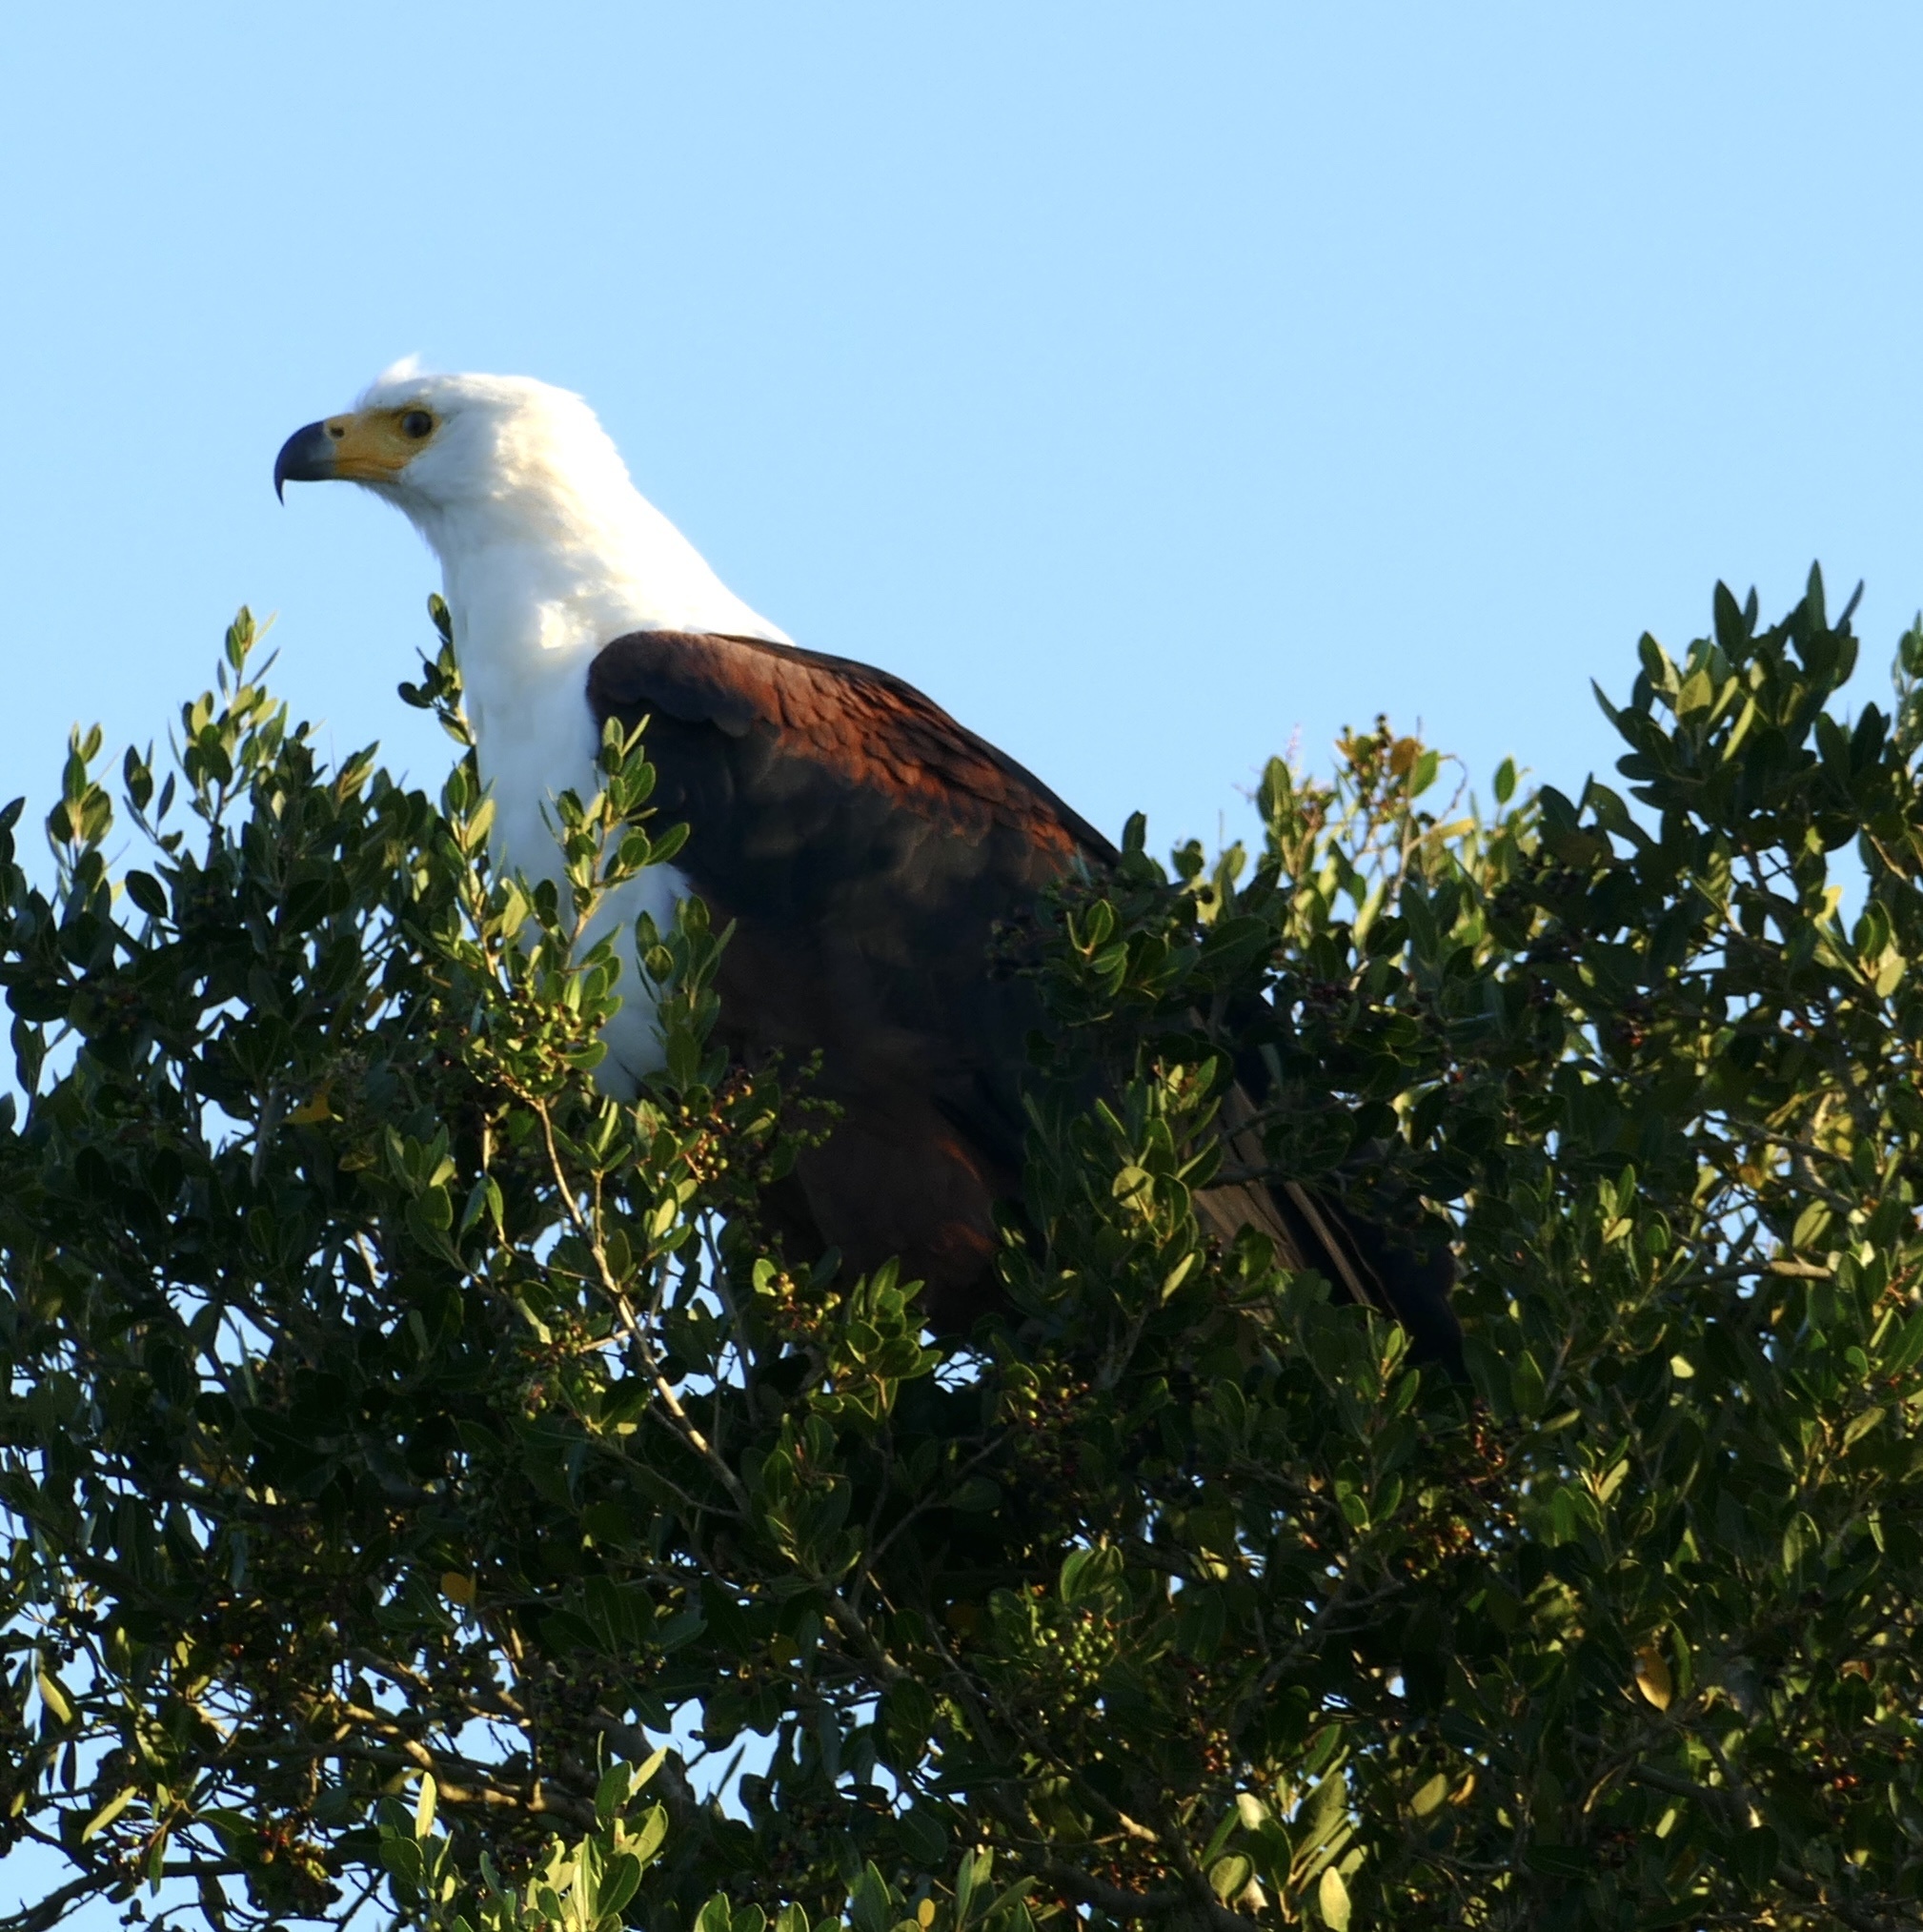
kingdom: Animalia
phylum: Chordata
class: Aves
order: Accipitriformes
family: Accipitridae
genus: Haliaeetus
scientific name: Haliaeetus vocifer
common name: African fish eagle
